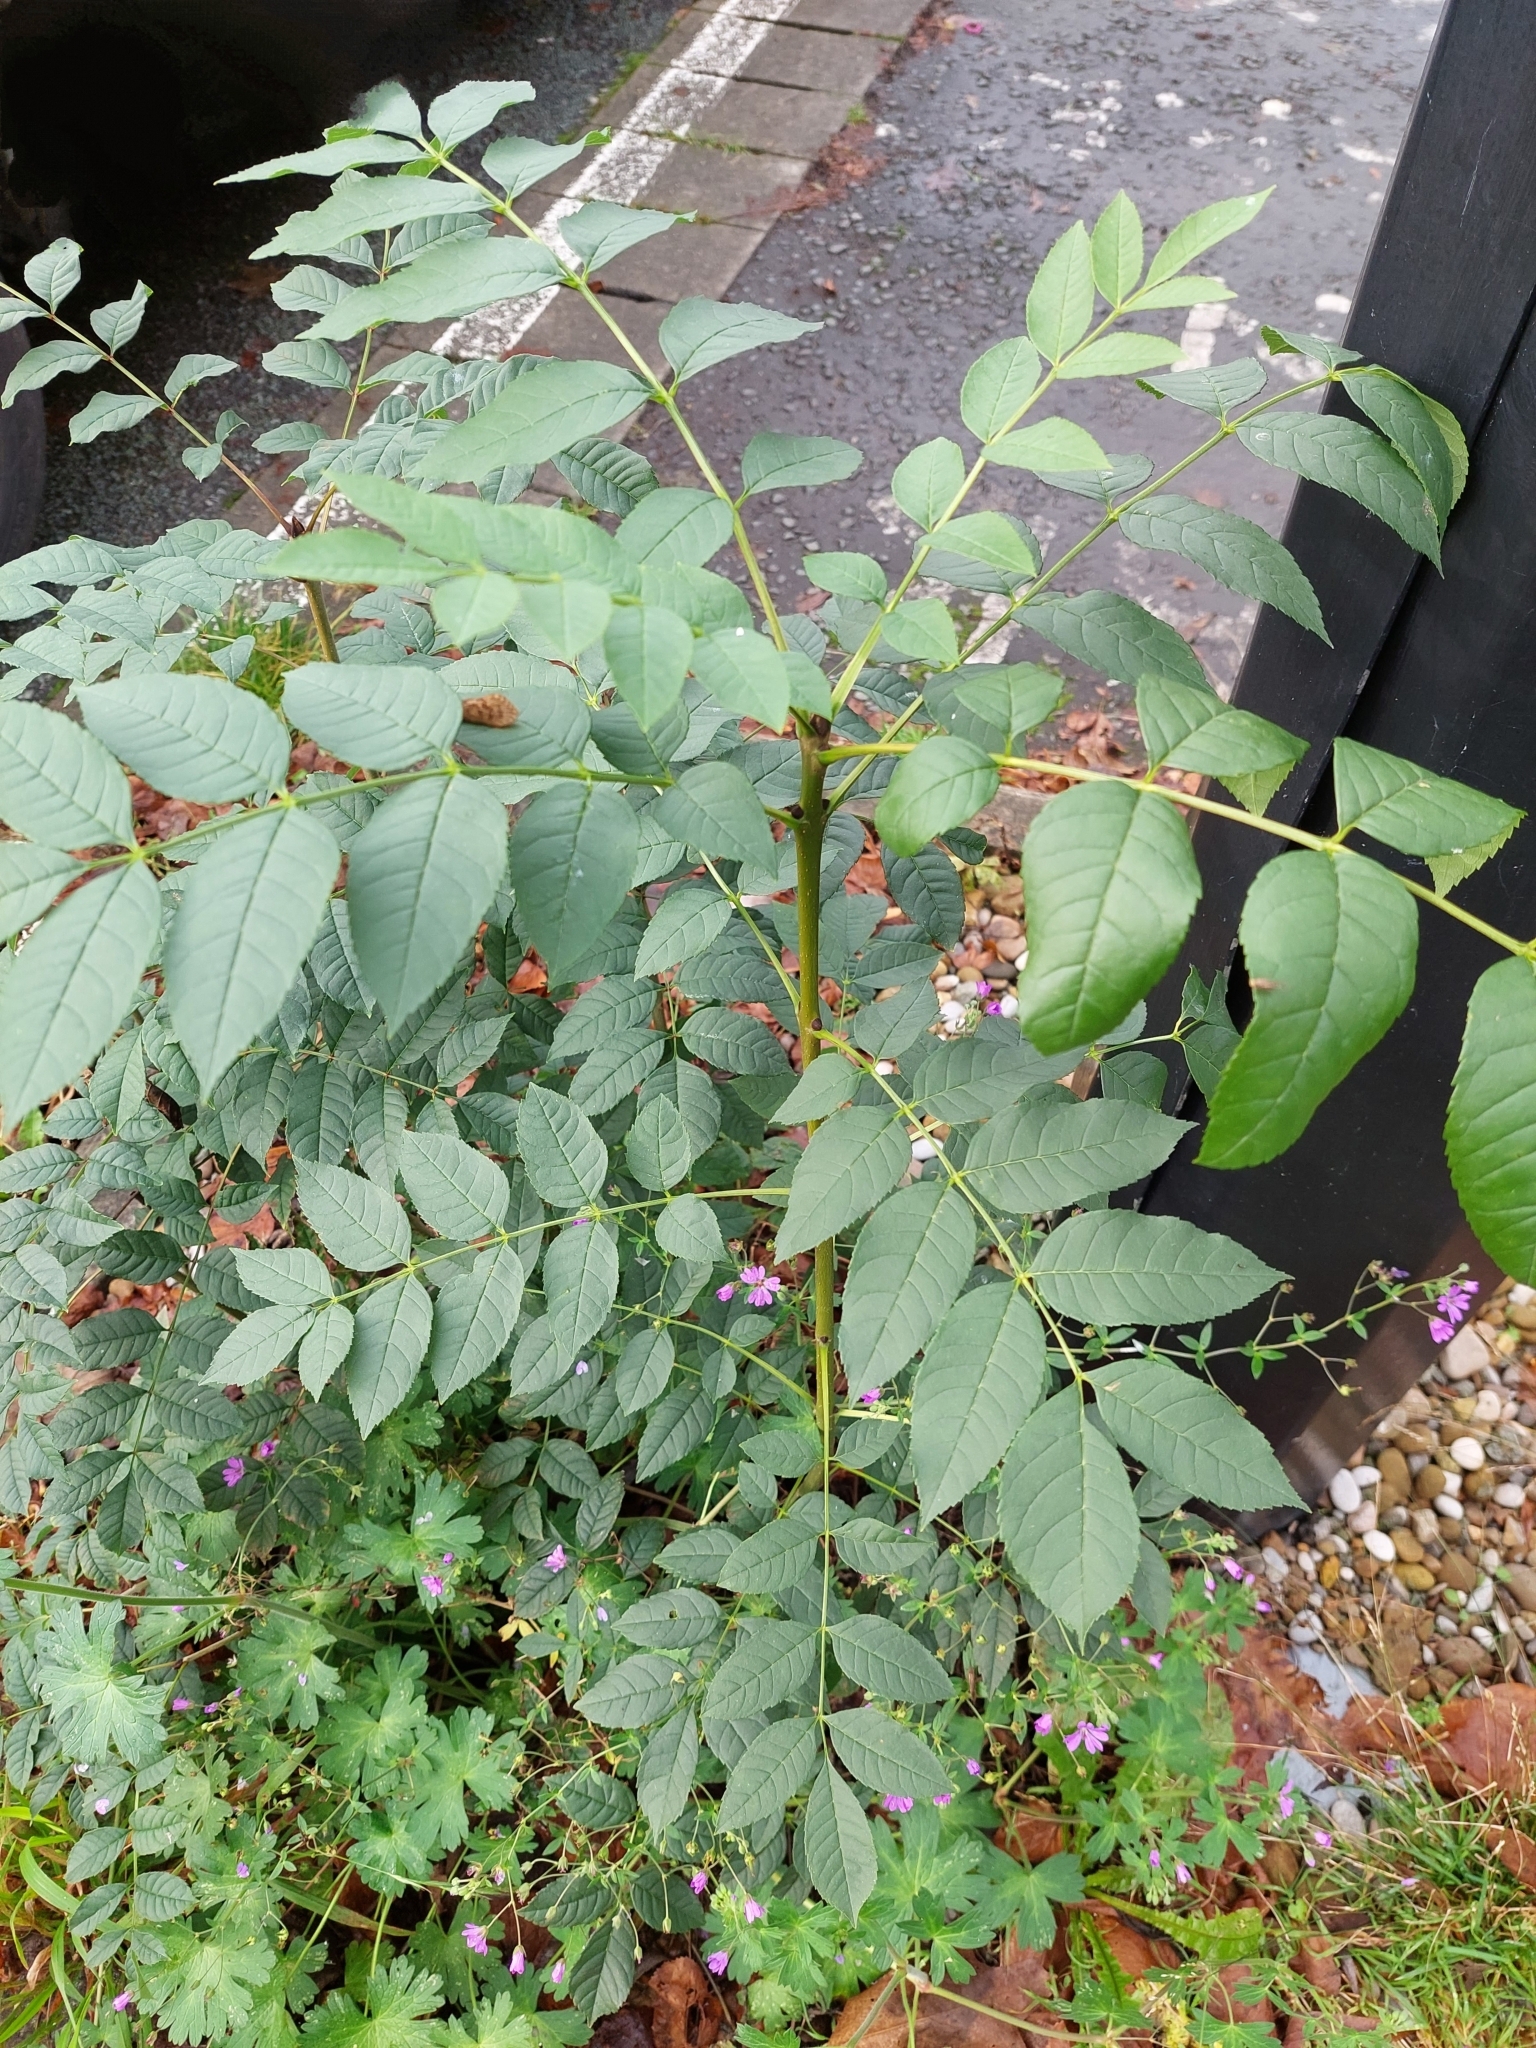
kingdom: Plantae
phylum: Tracheophyta
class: Magnoliopsida
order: Lamiales
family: Oleaceae
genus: Fraxinus
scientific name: Fraxinus excelsior
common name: European ash
